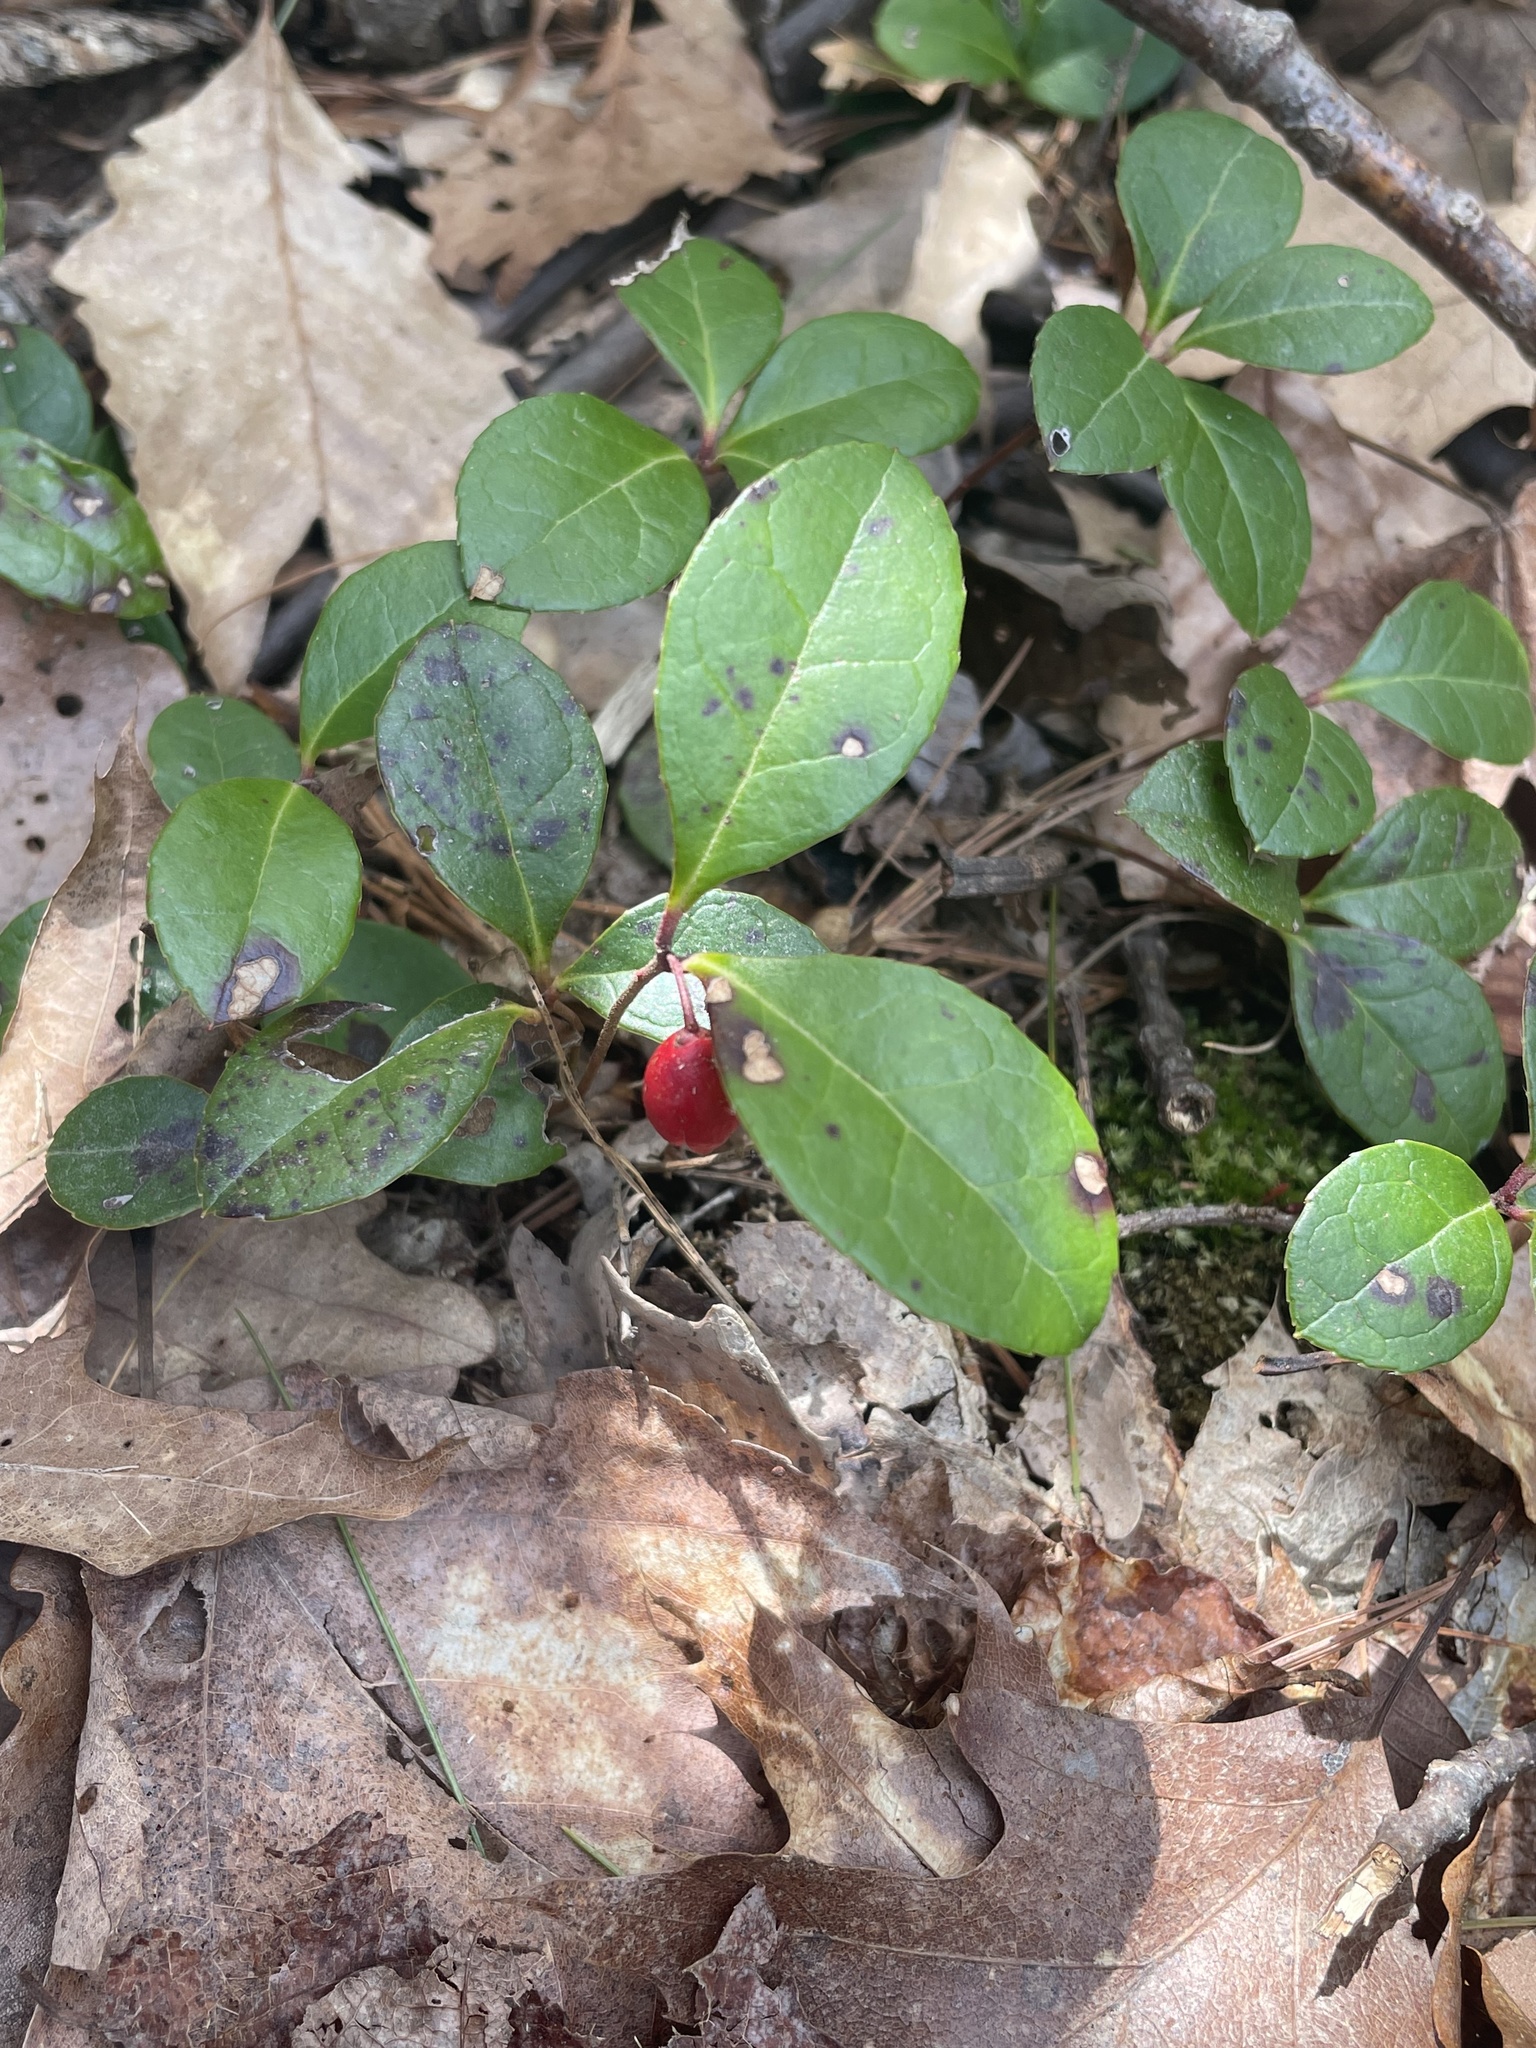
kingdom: Plantae
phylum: Tracheophyta
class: Magnoliopsida
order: Ericales
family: Ericaceae
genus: Gaultheria
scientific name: Gaultheria procumbens
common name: Checkerberry
